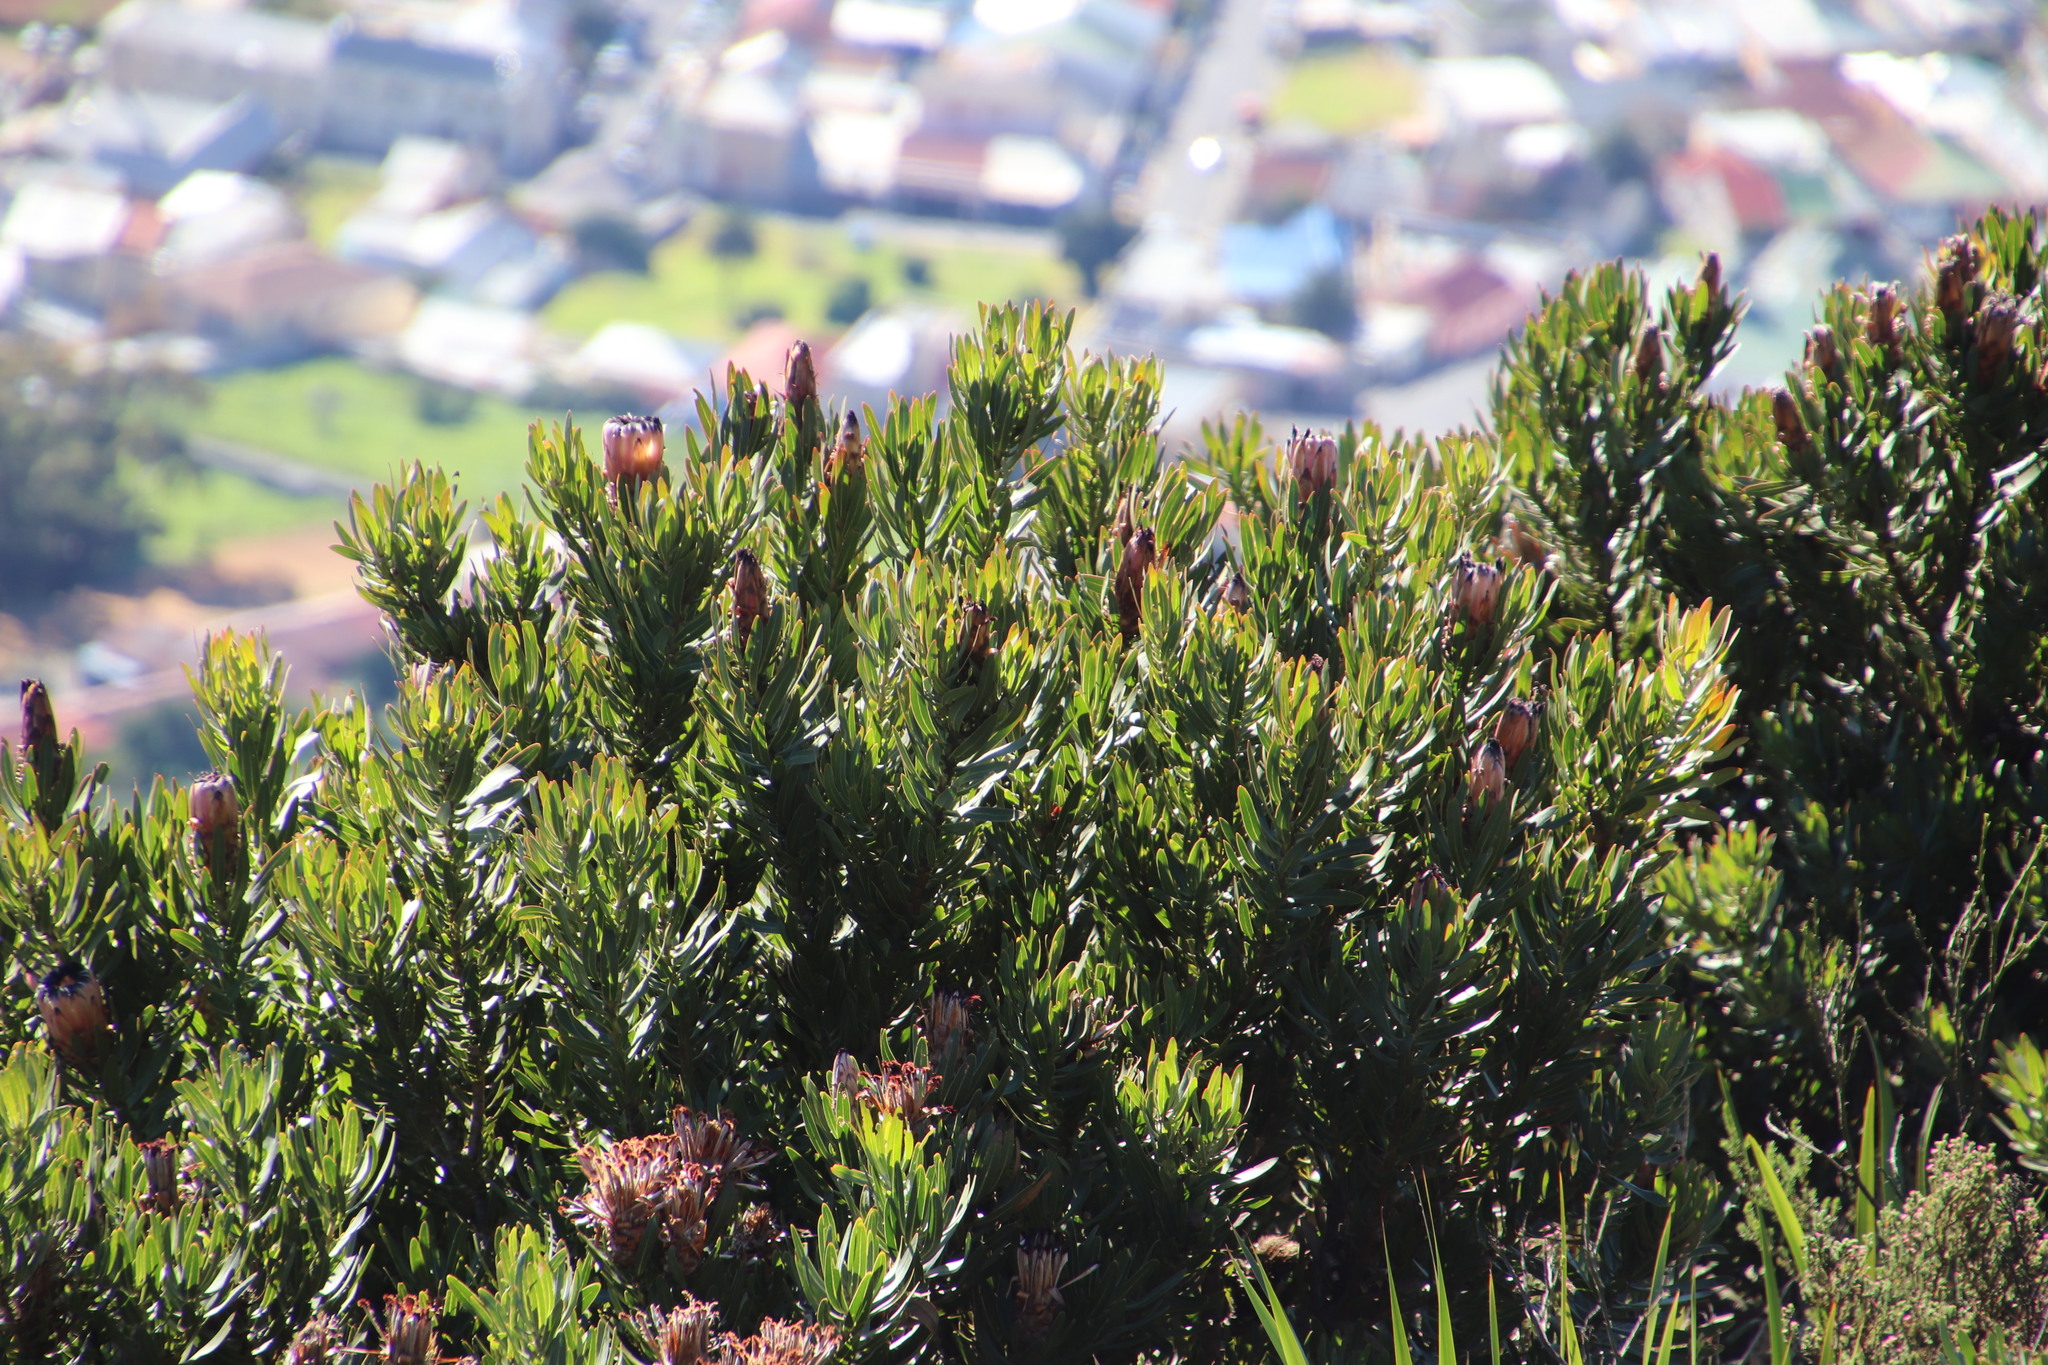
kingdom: Plantae
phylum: Tracheophyta
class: Magnoliopsida
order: Proteales
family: Proteaceae
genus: Protea
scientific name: Protea
